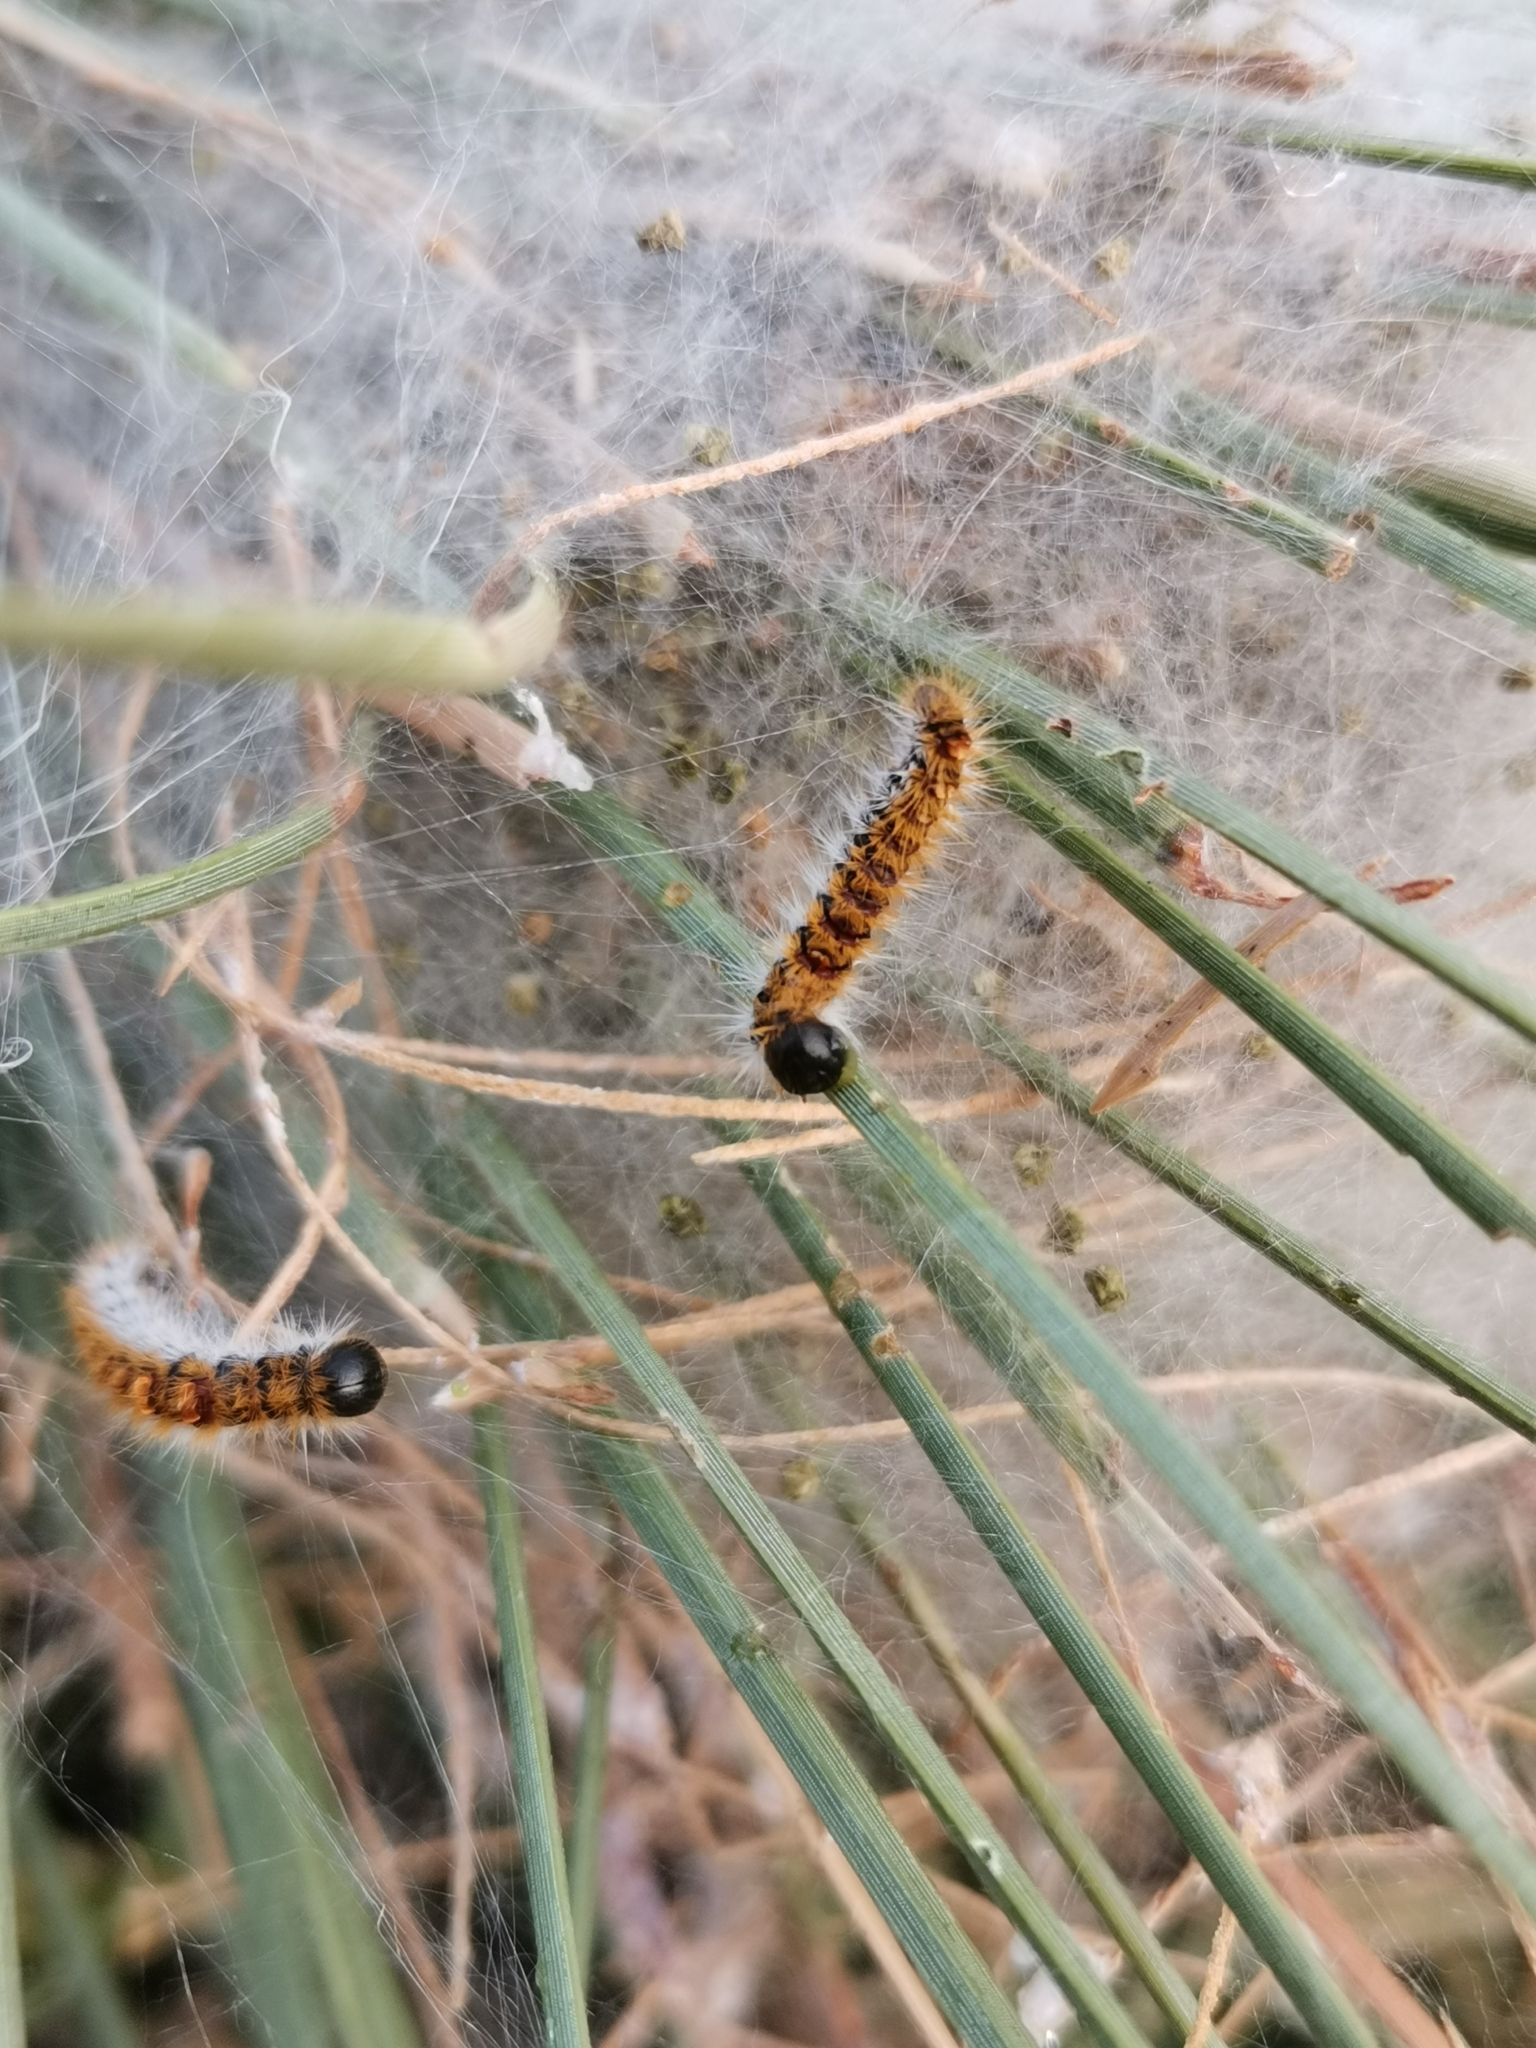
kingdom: Animalia
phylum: Arthropoda
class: Insecta
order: Lepidoptera
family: Notodontidae
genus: Thaumetopoea
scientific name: Thaumetopoea pityocampa
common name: Pine processionary
